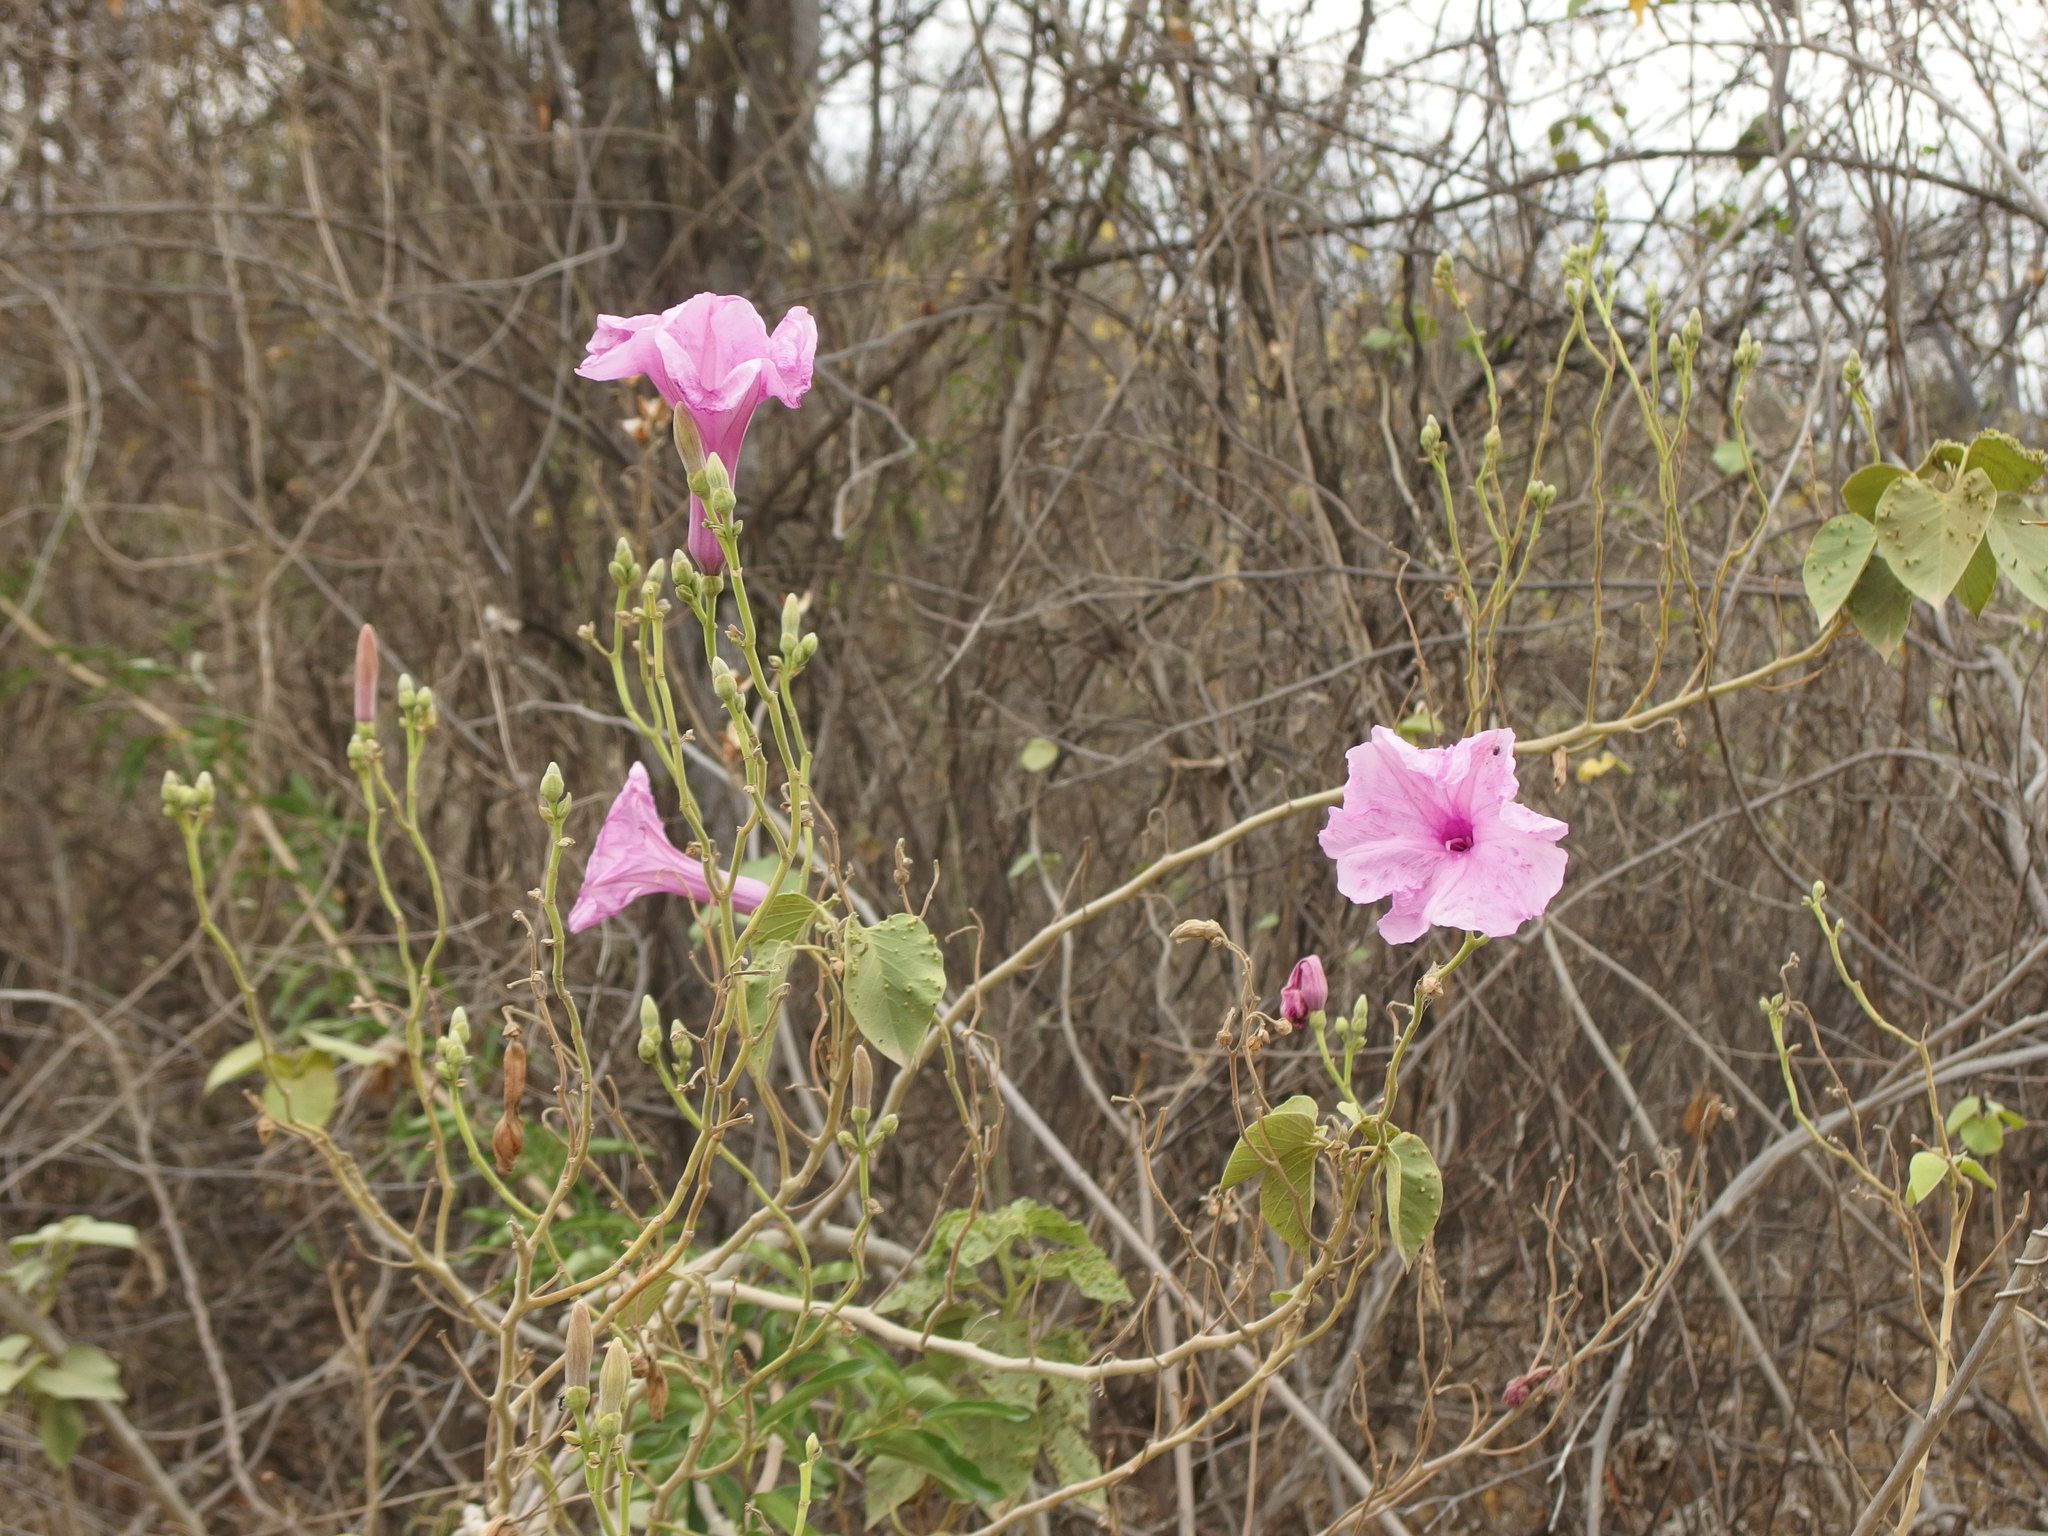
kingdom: Plantae
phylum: Tracheophyta
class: Magnoliopsida
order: Solanales
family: Convolvulaceae
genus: Ipomoea
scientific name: Ipomoea carnea
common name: Morning-glory
